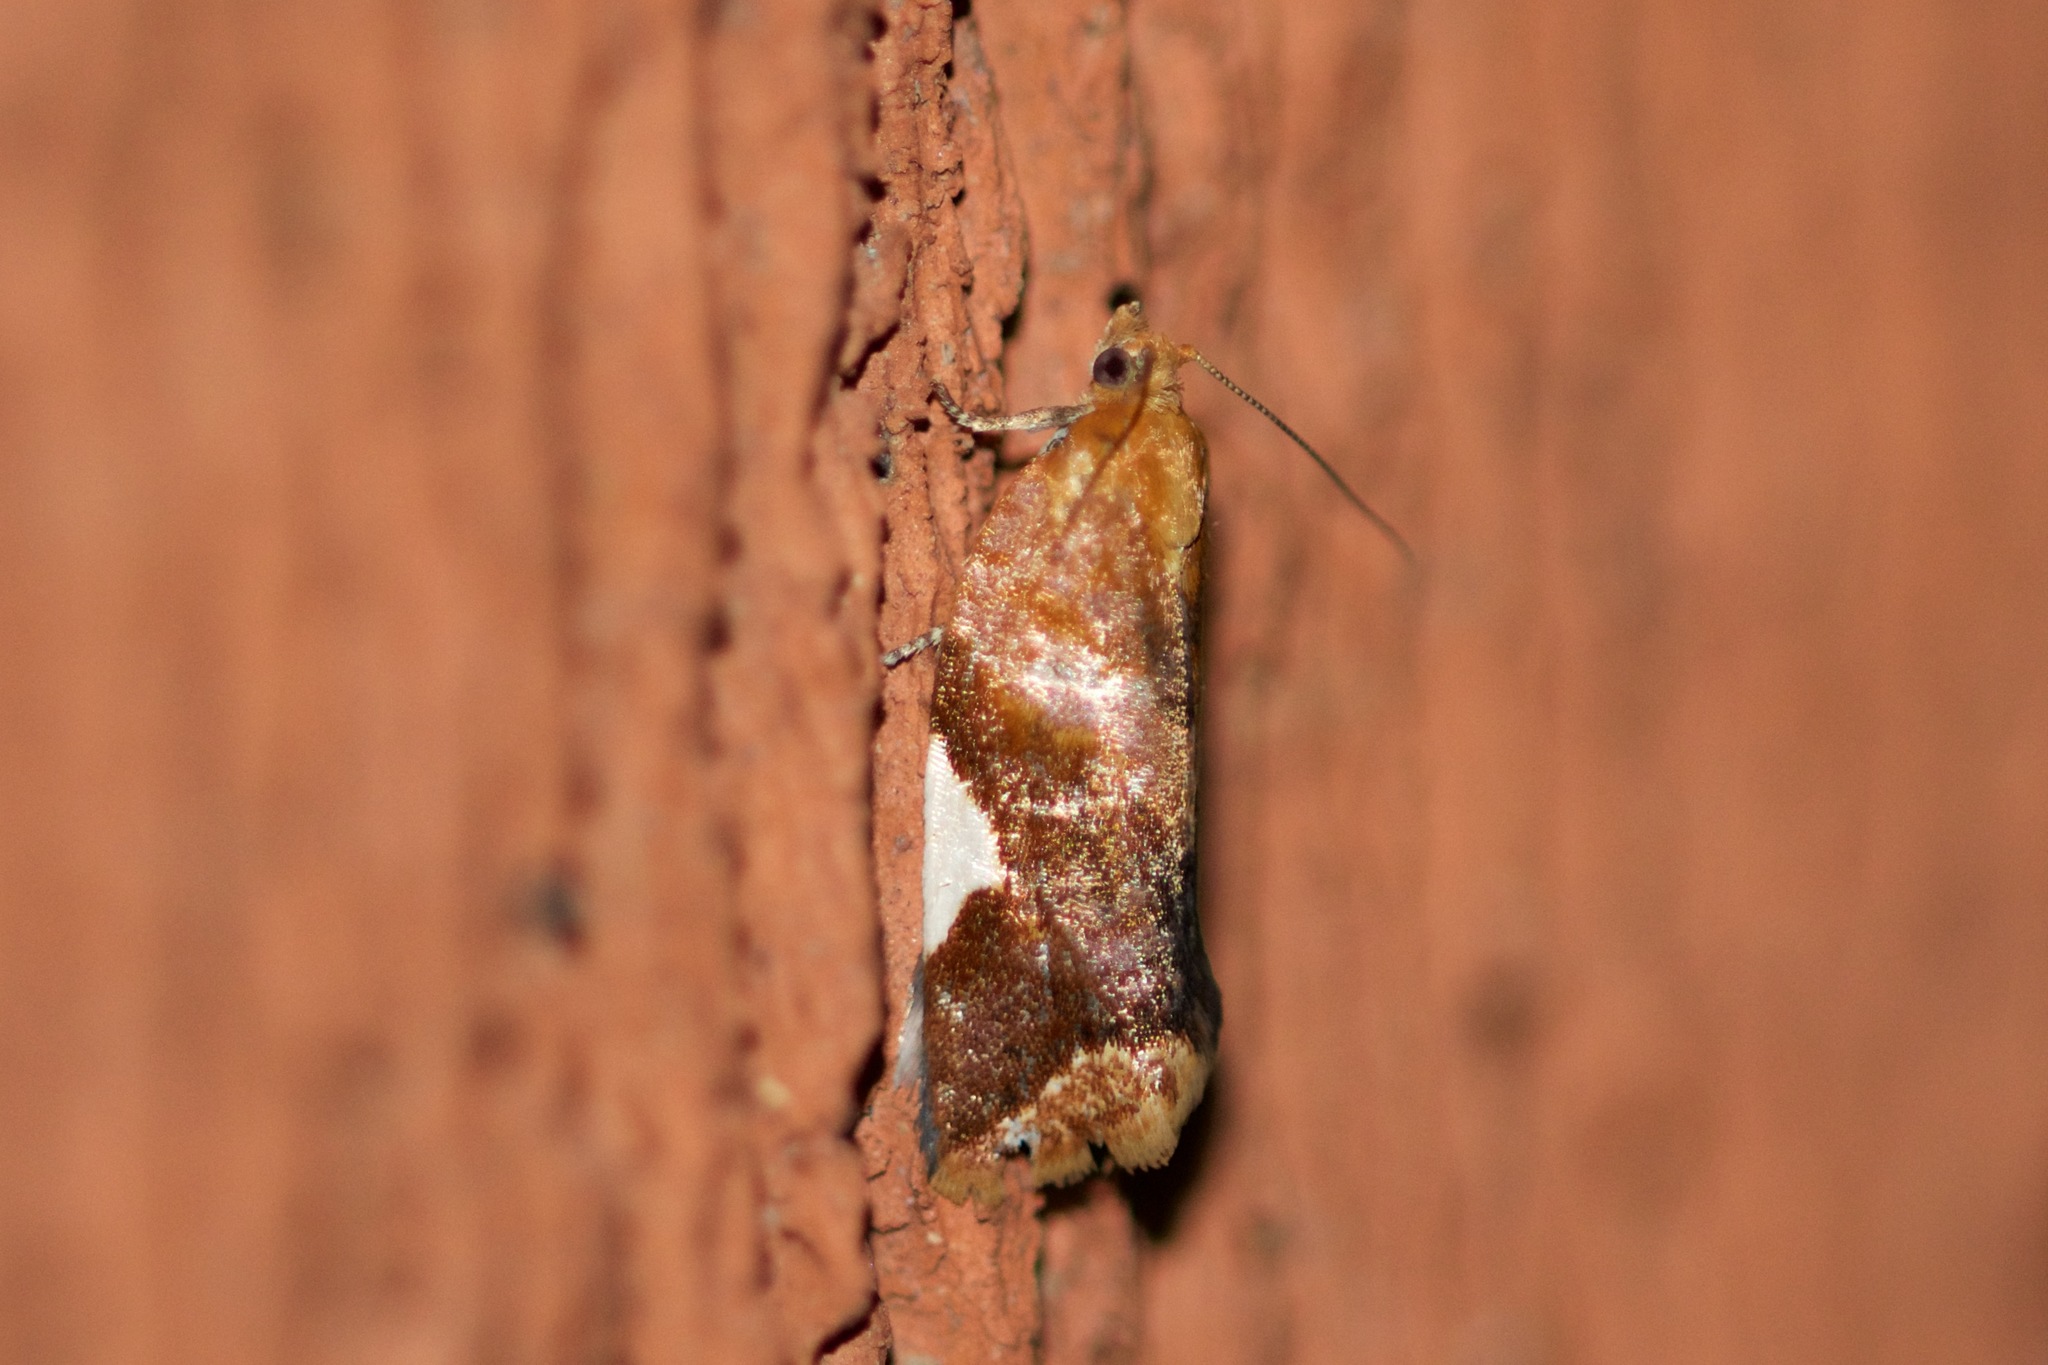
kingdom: Animalia
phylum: Arthropoda
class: Insecta
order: Lepidoptera
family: Tortricidae
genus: Clepsis
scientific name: Clepsis persicana
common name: White triangle tortrix
